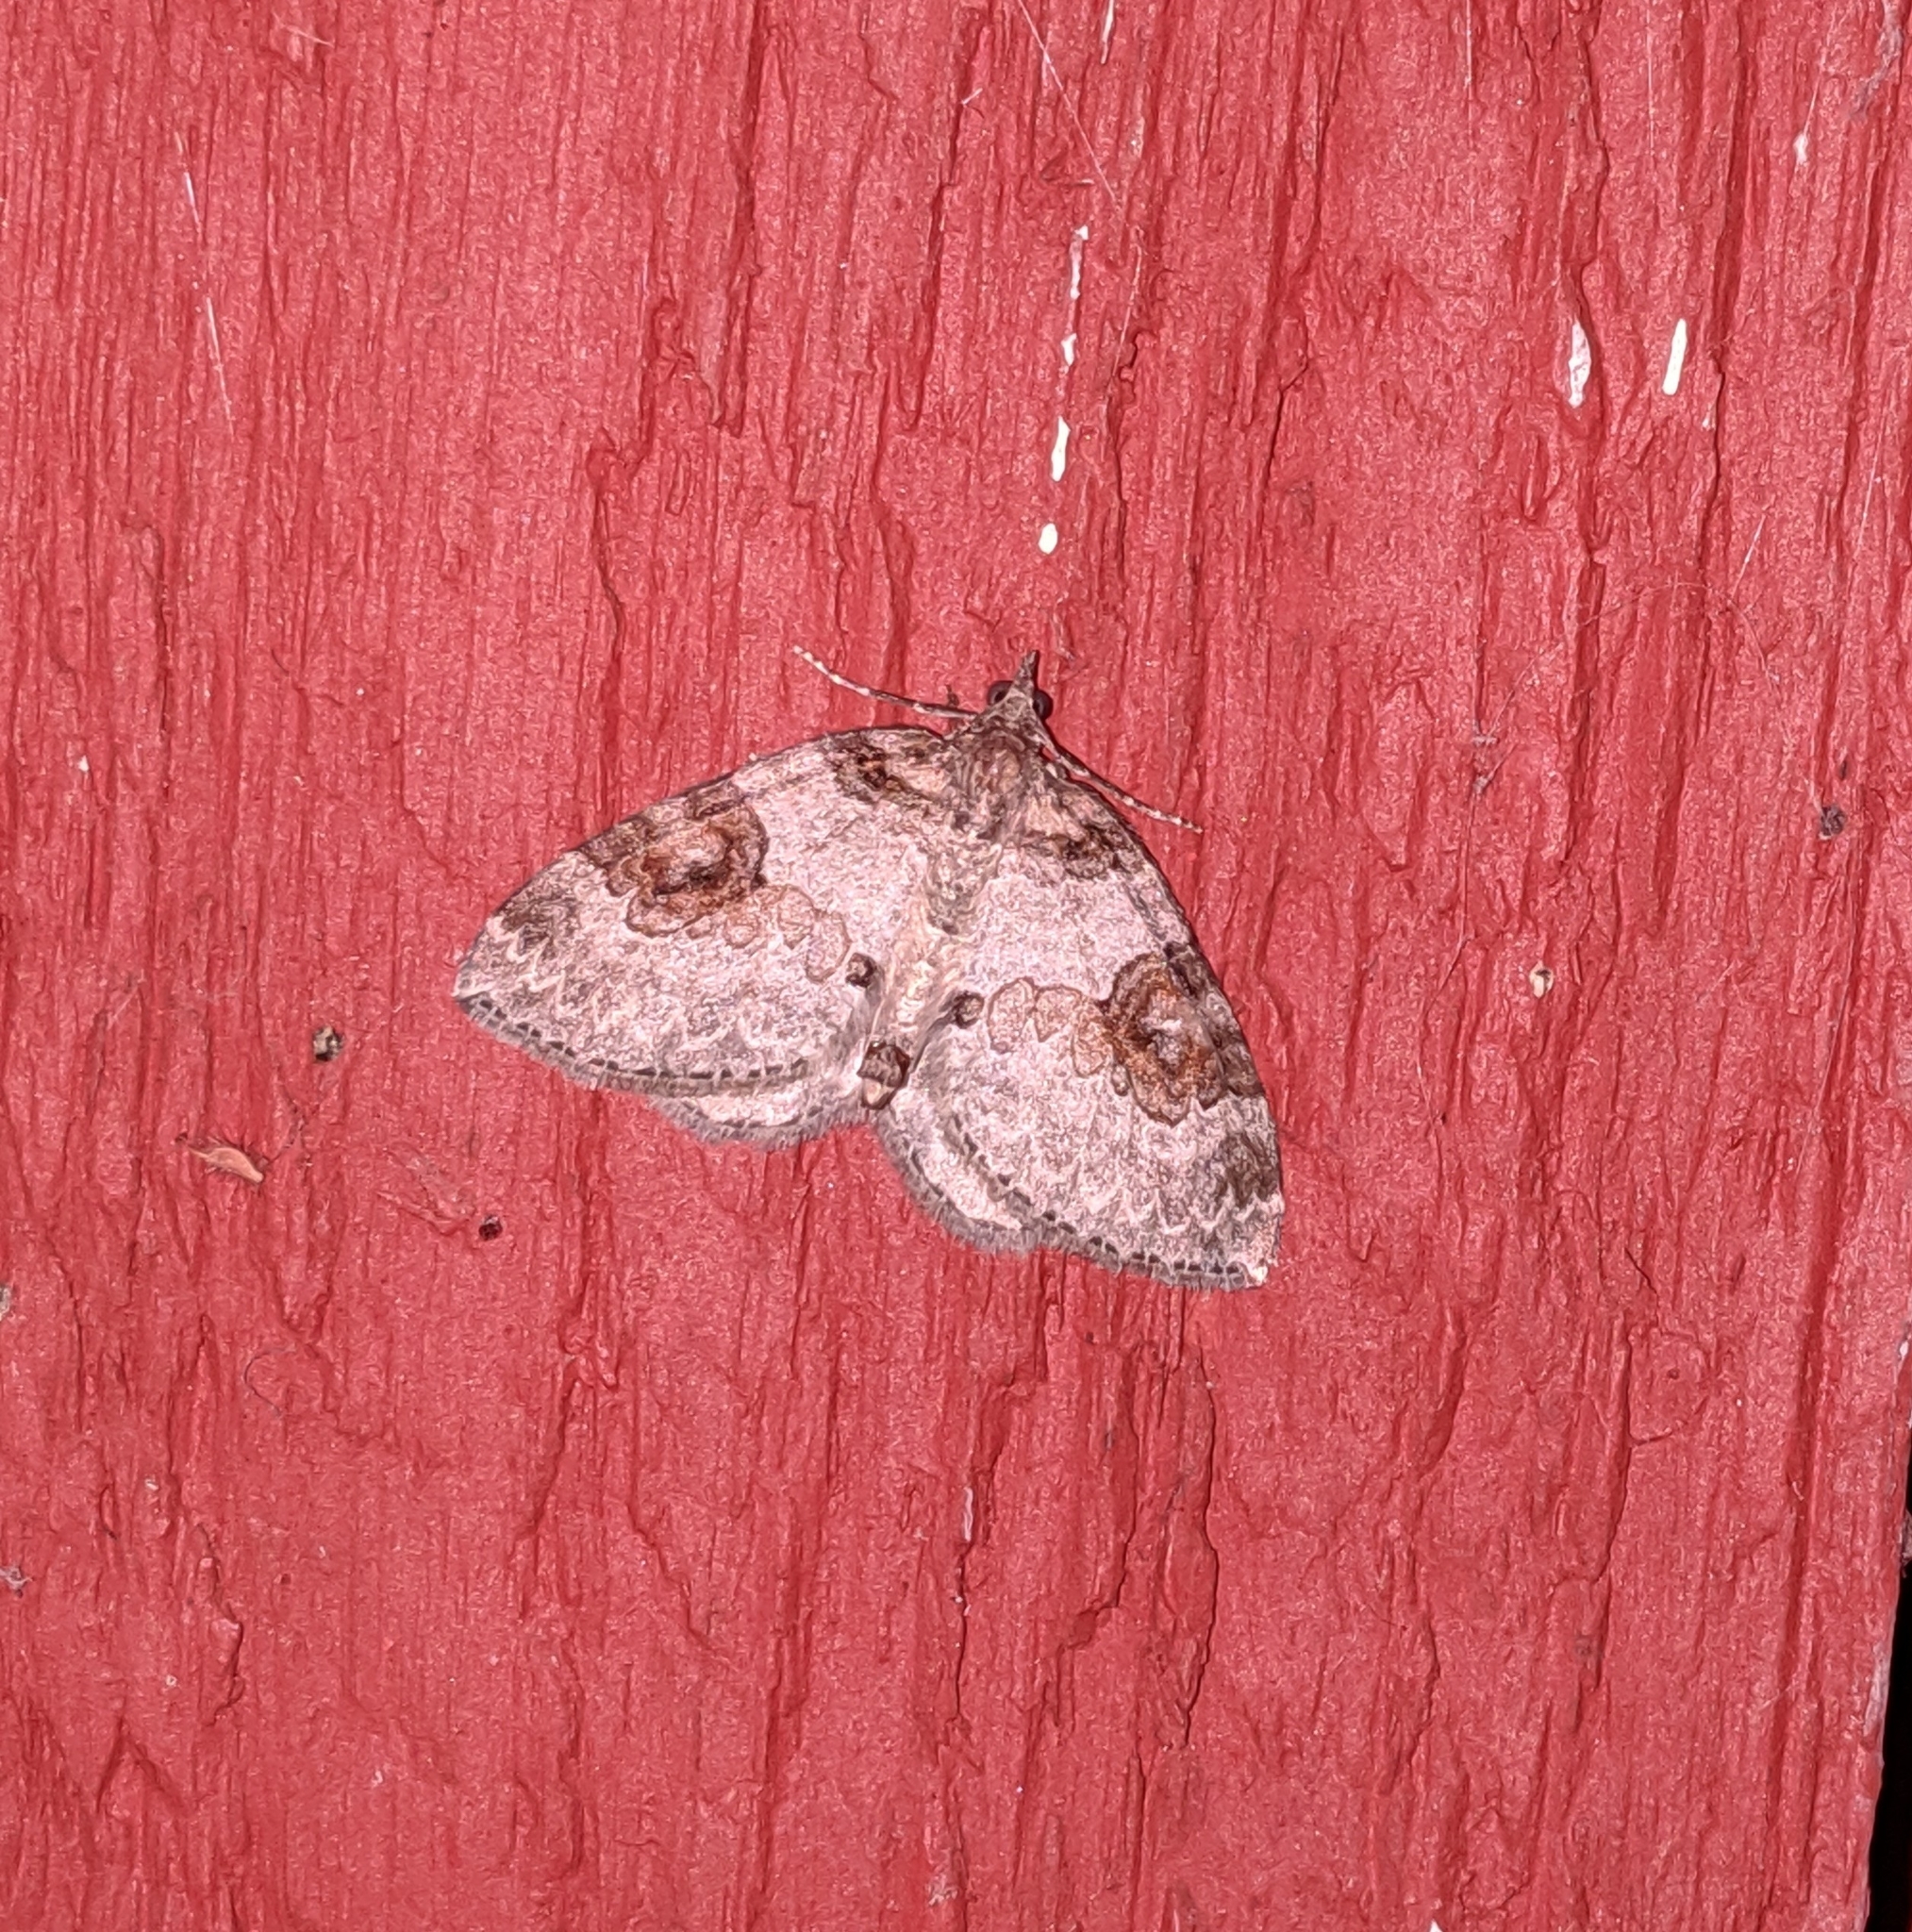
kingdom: Animalia
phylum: Arthropoda
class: Insecta
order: Lepidoptera
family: Geometridae
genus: Plemyria
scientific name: Plemyria georgii
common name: George's carpet moth
